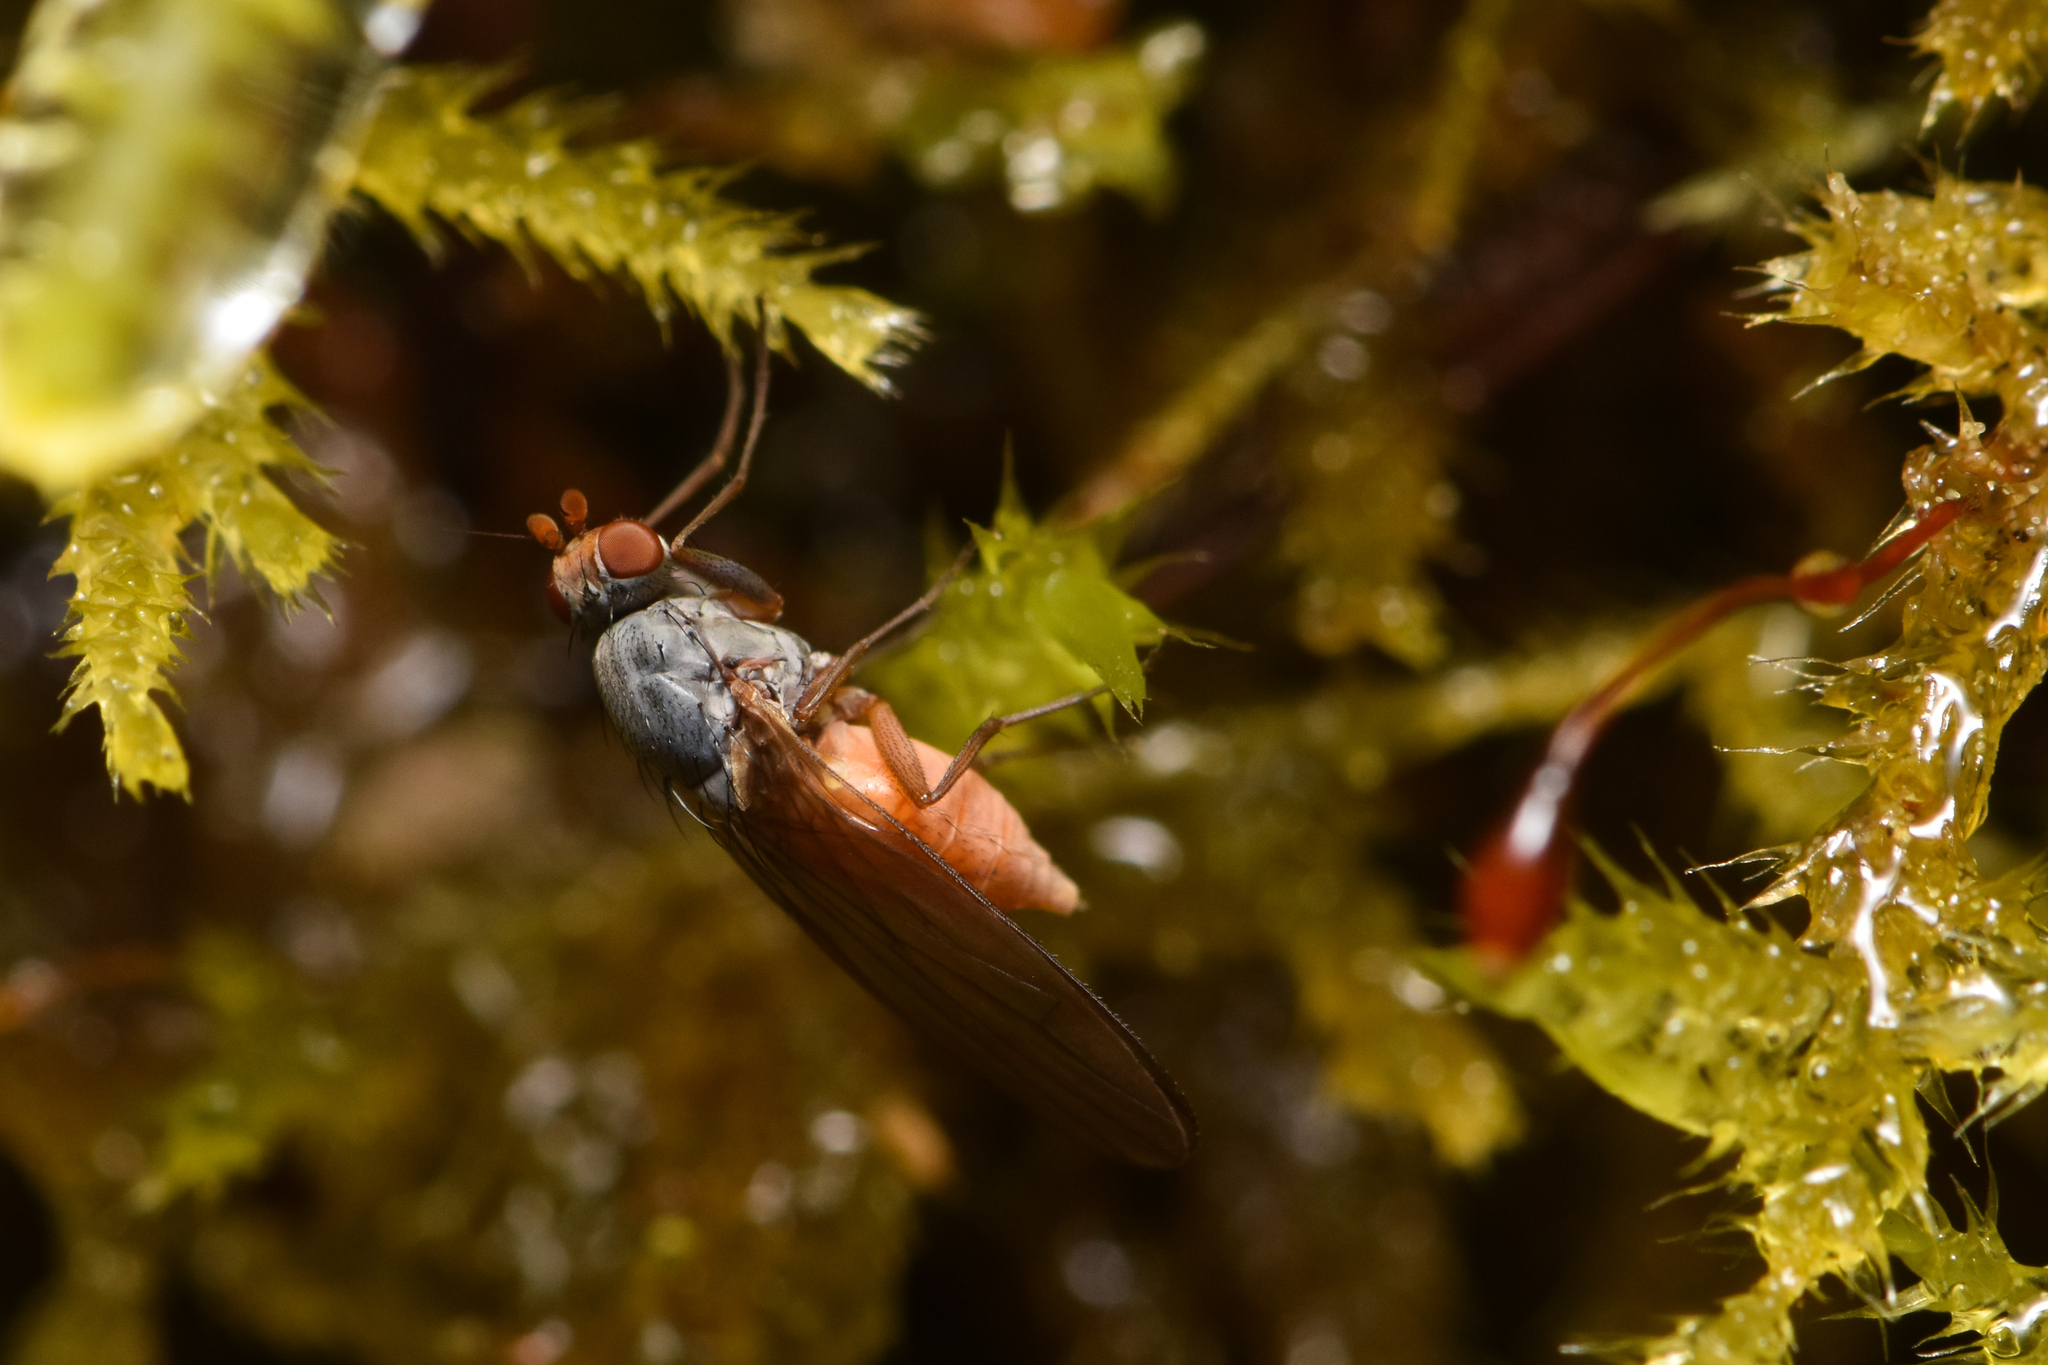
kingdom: Animalia
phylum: Arthropoda
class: Insecta
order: Diptera
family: Heleomyzidae
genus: Tephrochlamys
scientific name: Tephrochlamys rufiventris
